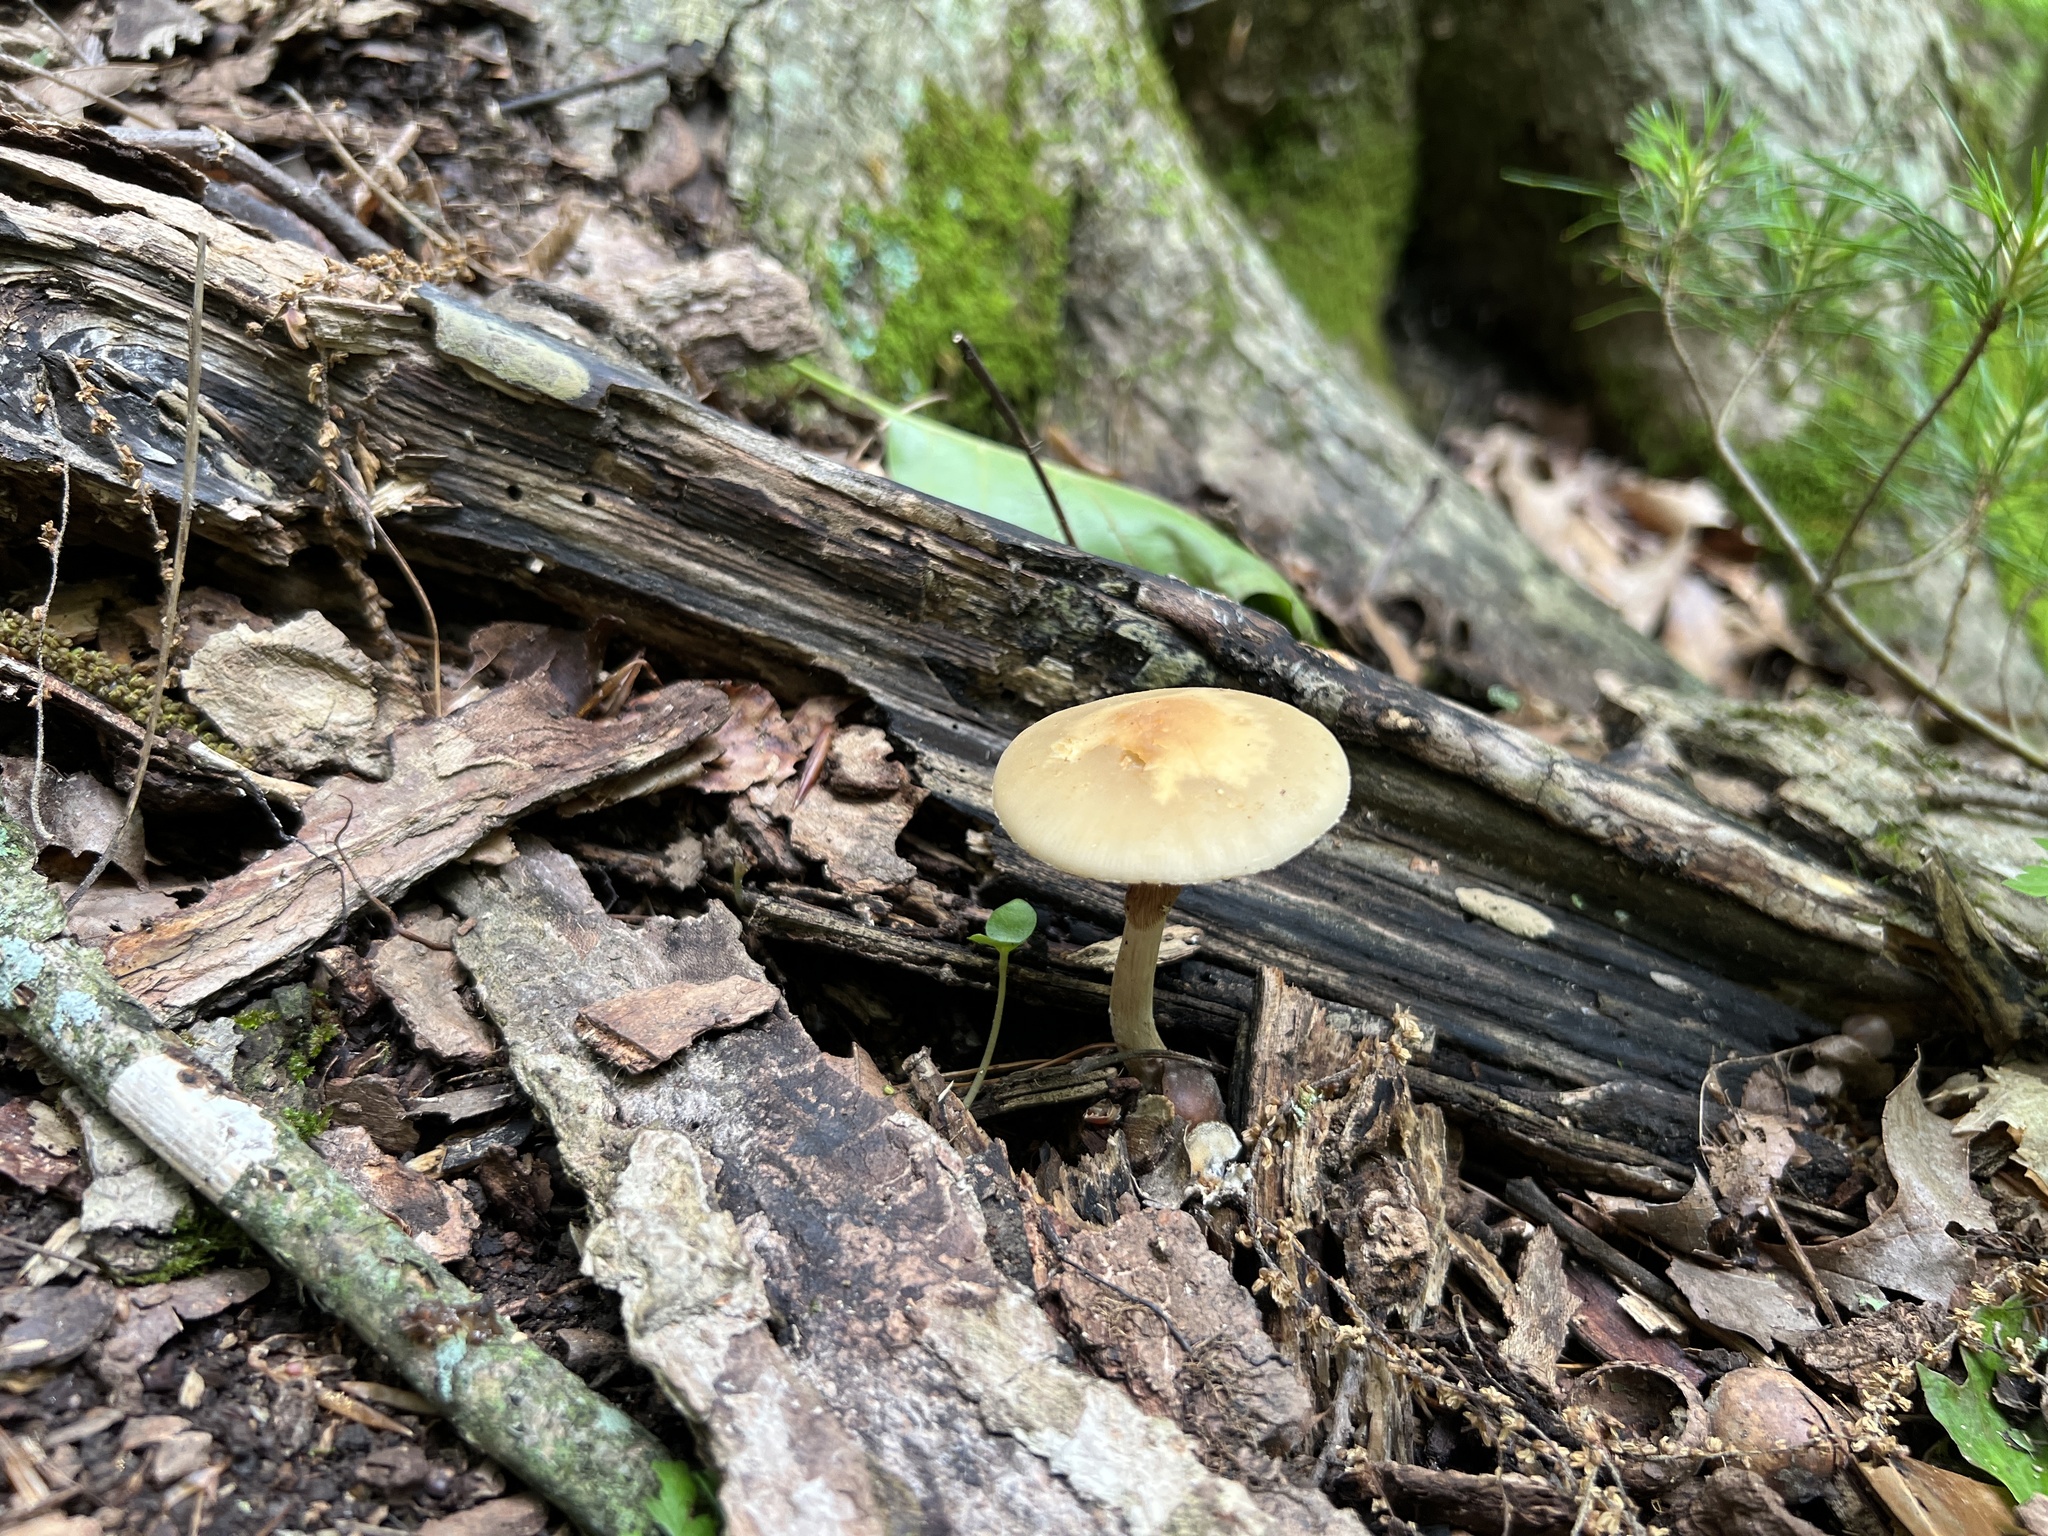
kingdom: Fungi
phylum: Basidiomycota
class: Agaricomycetes
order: Agaricales
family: Strophariaceae
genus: Agrocybe
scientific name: Agrocybe acericola
